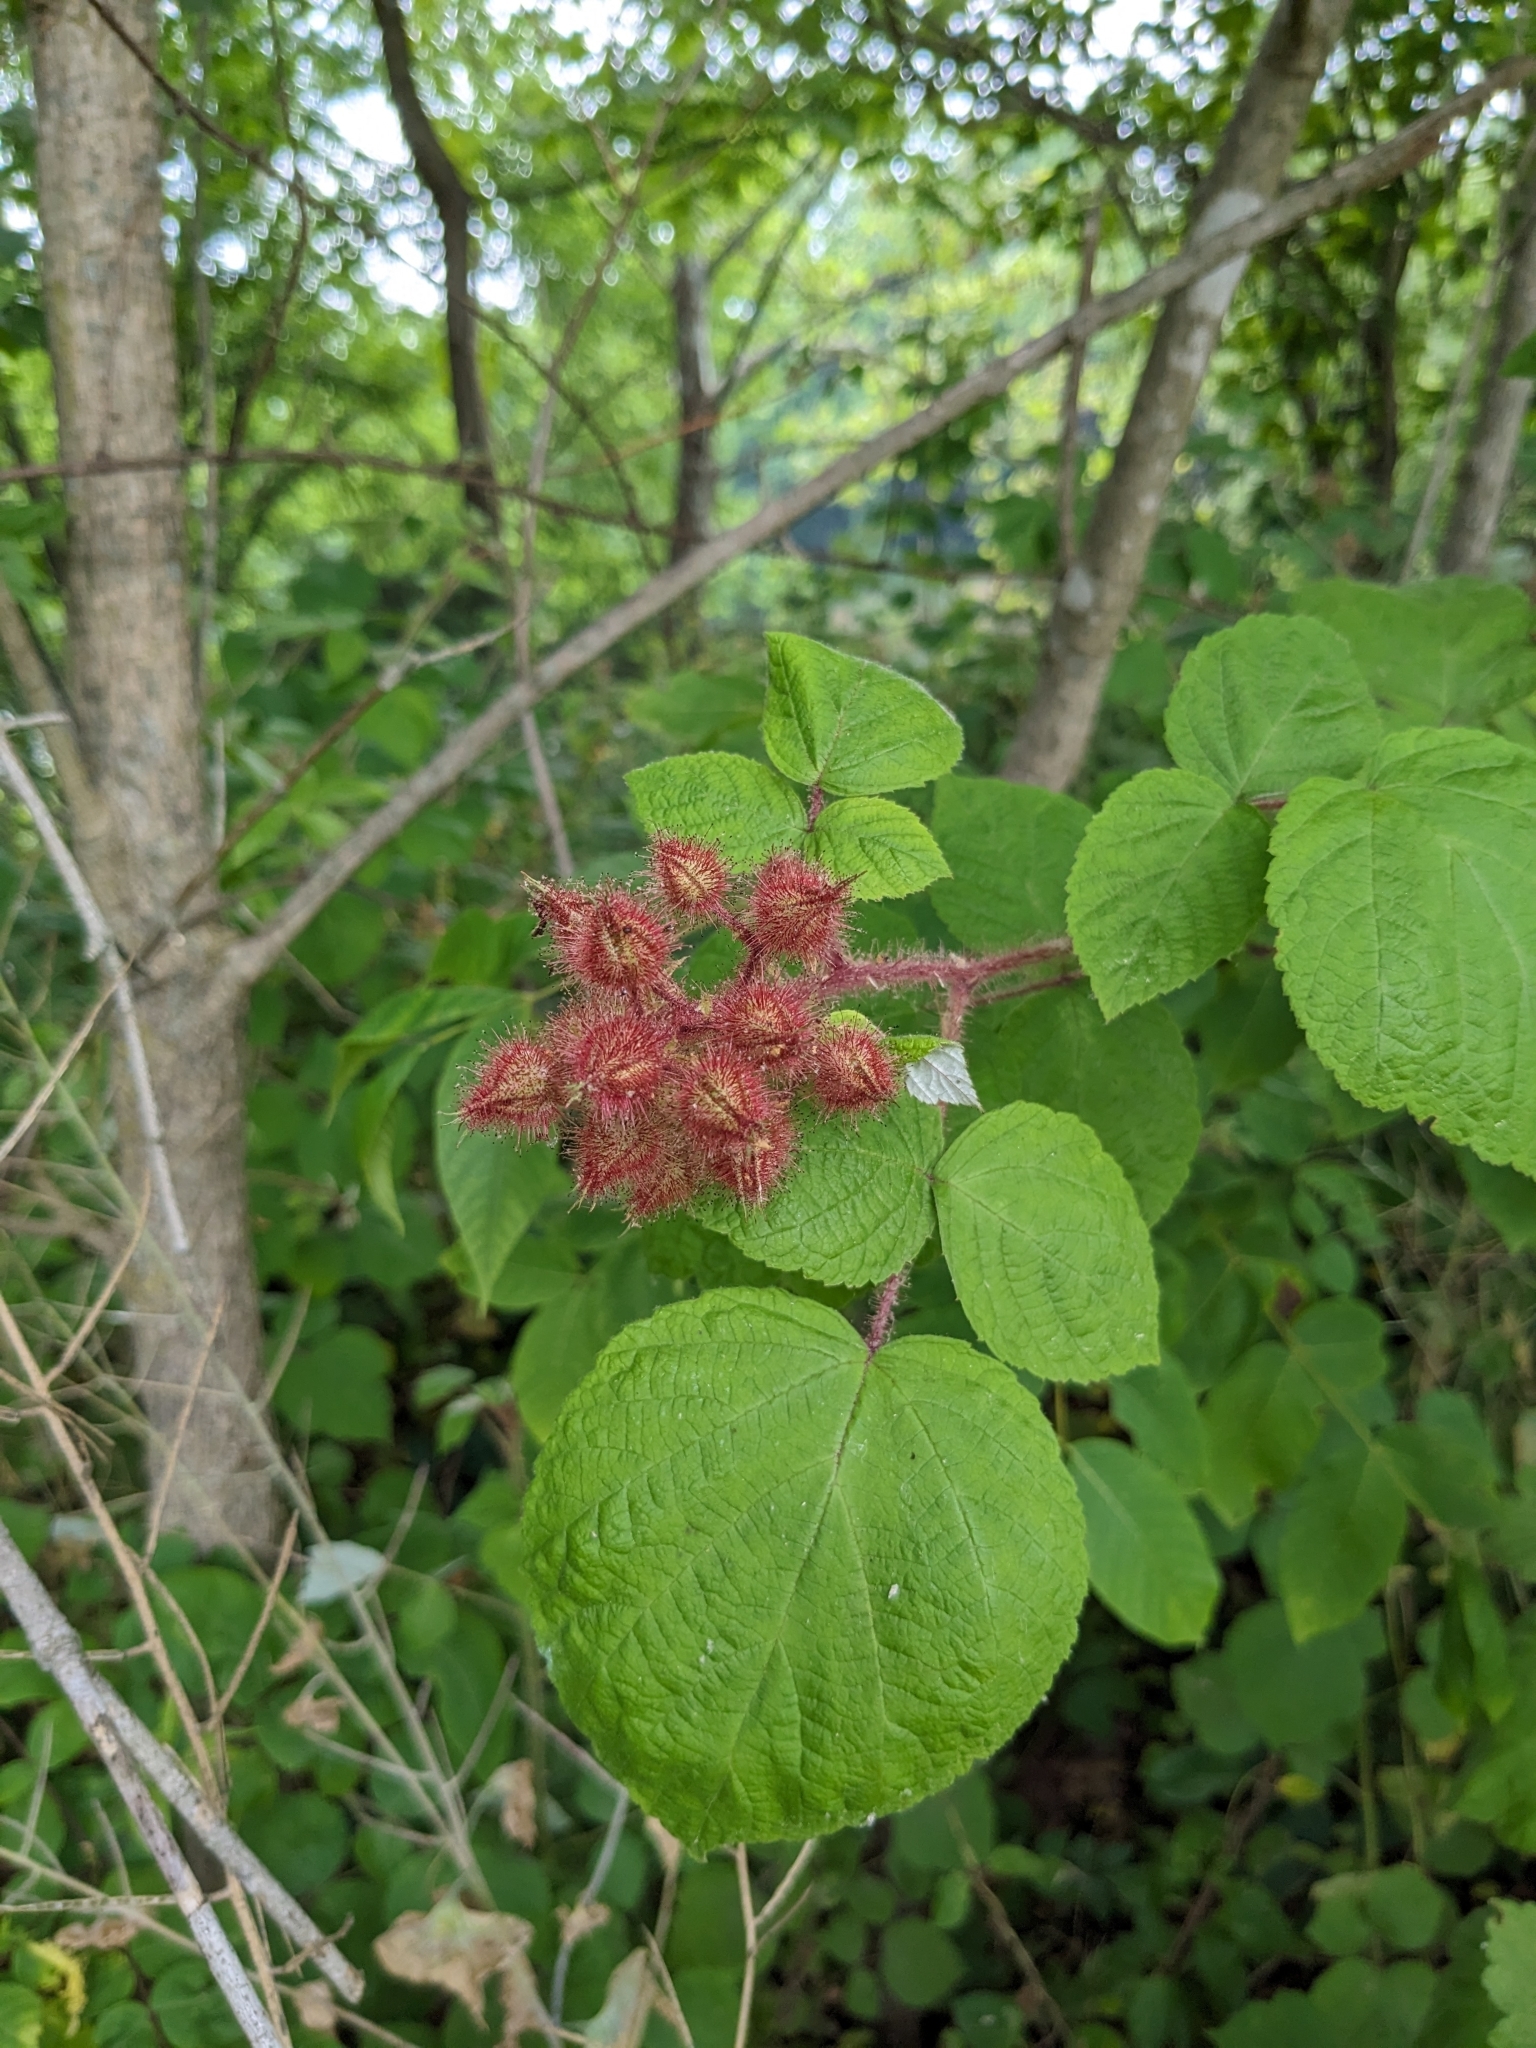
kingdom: Plantae
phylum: Tracheophyta
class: Magnoliopsida
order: Rosales
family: Rosaceae
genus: Rubus
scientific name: Rubus phoenicolasius
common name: Japanese wineberry
